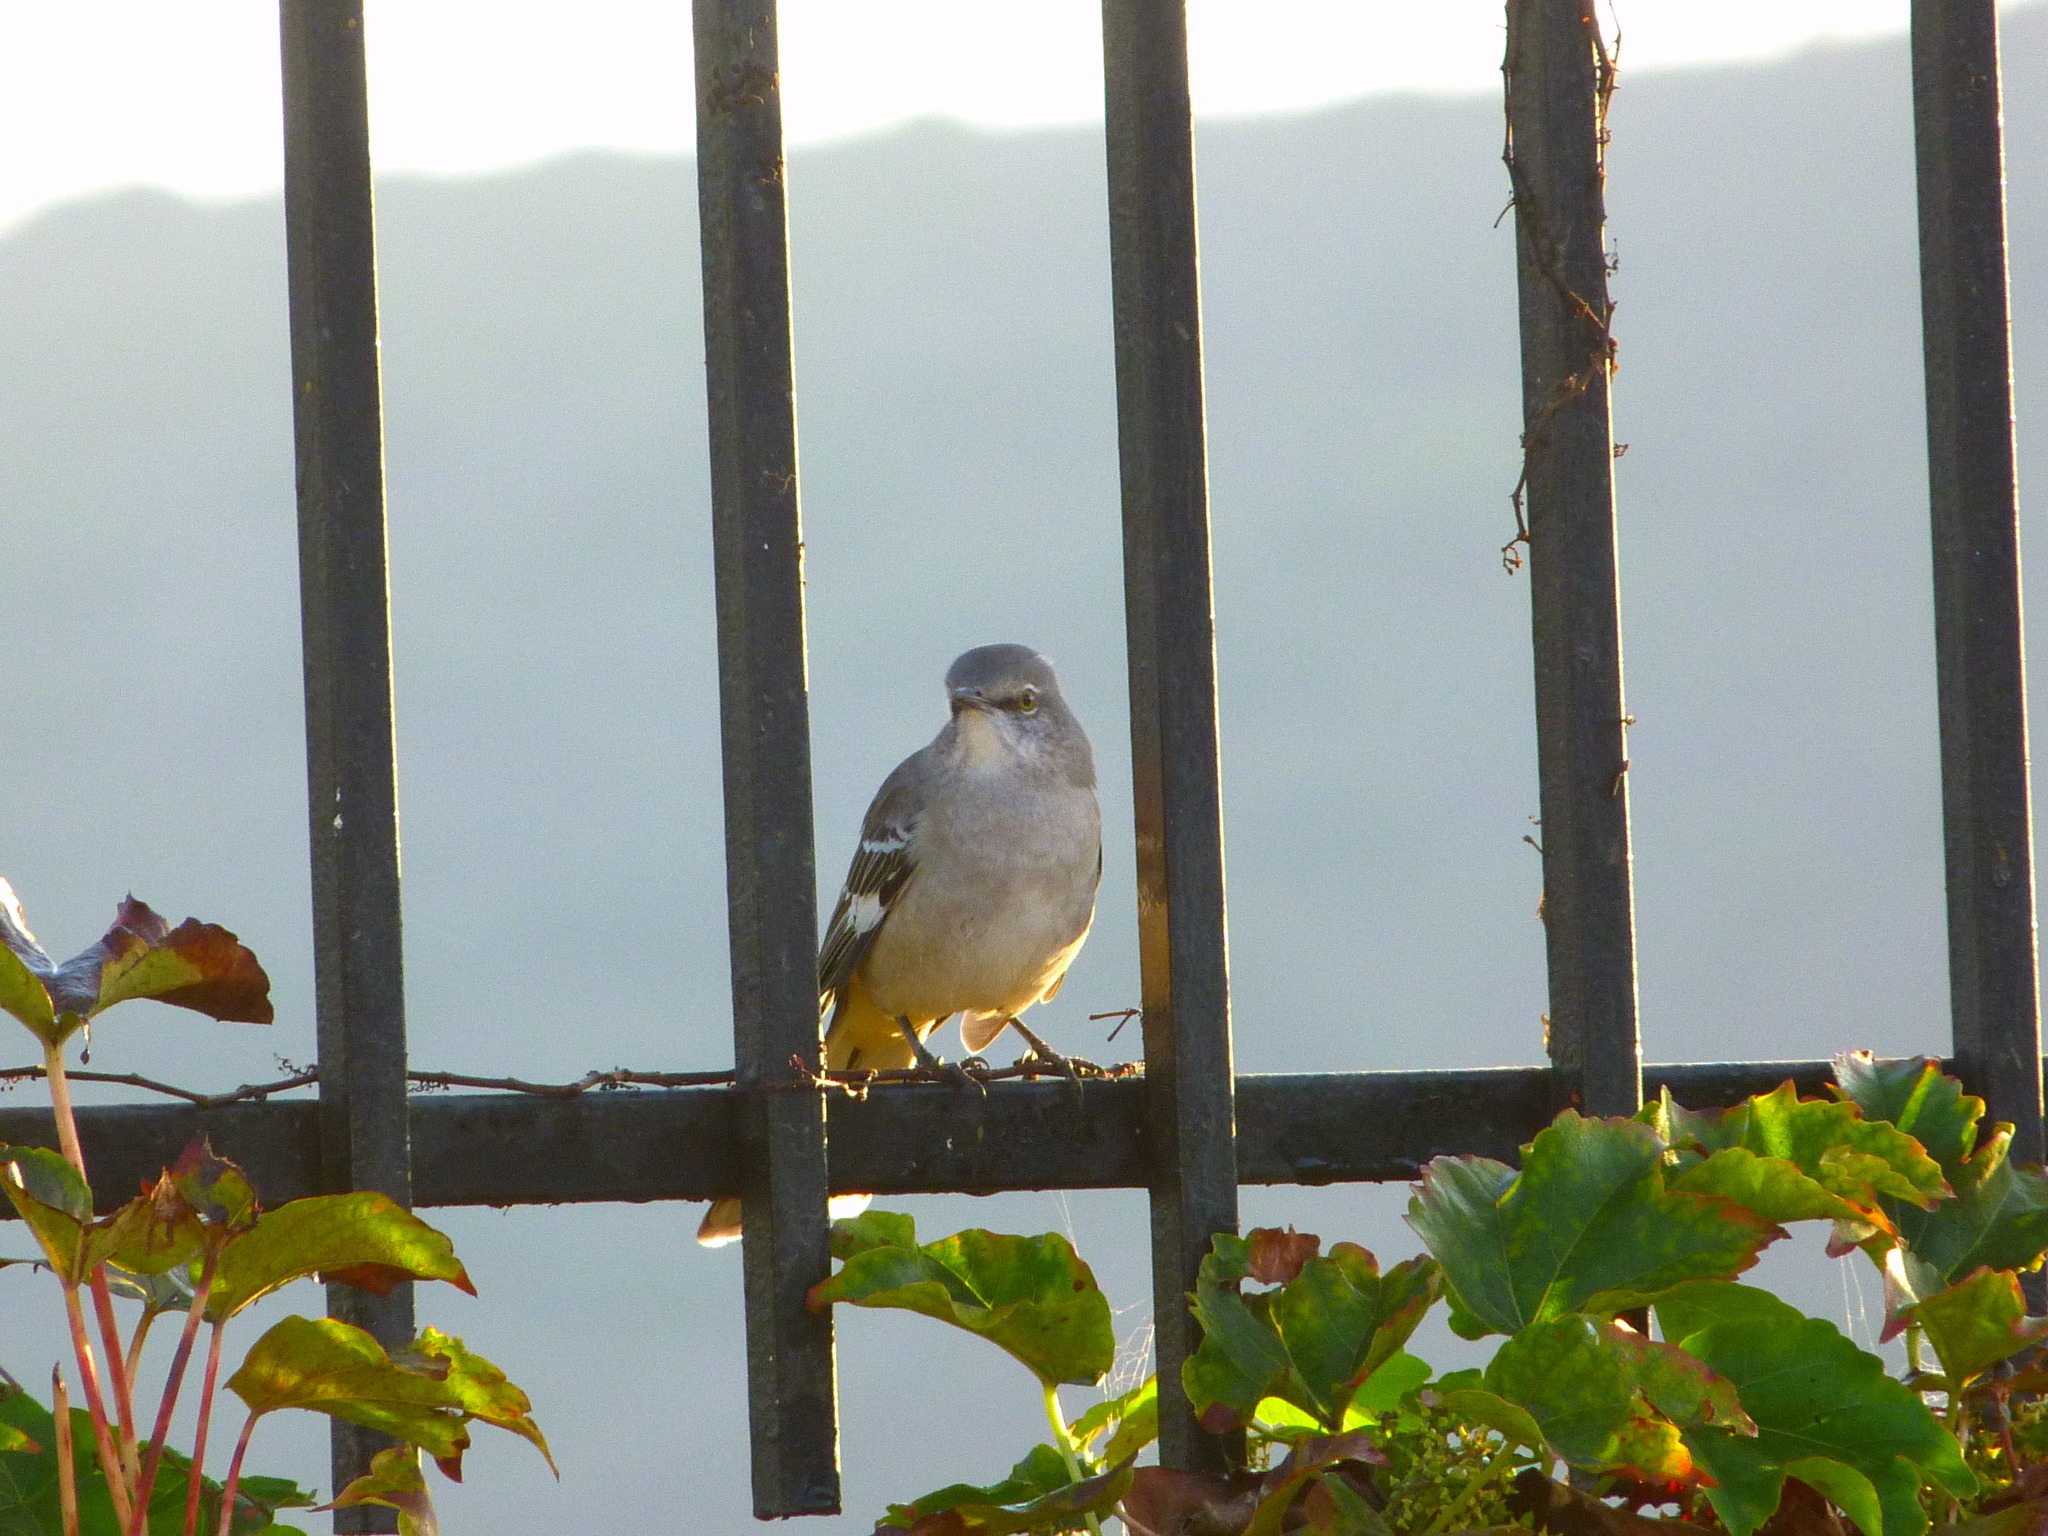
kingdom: Animalia
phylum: Chordata
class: Aves
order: Passeriformes
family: Mimidae
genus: Mimus
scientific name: Mimus polyglottos
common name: Northern mockingbird
